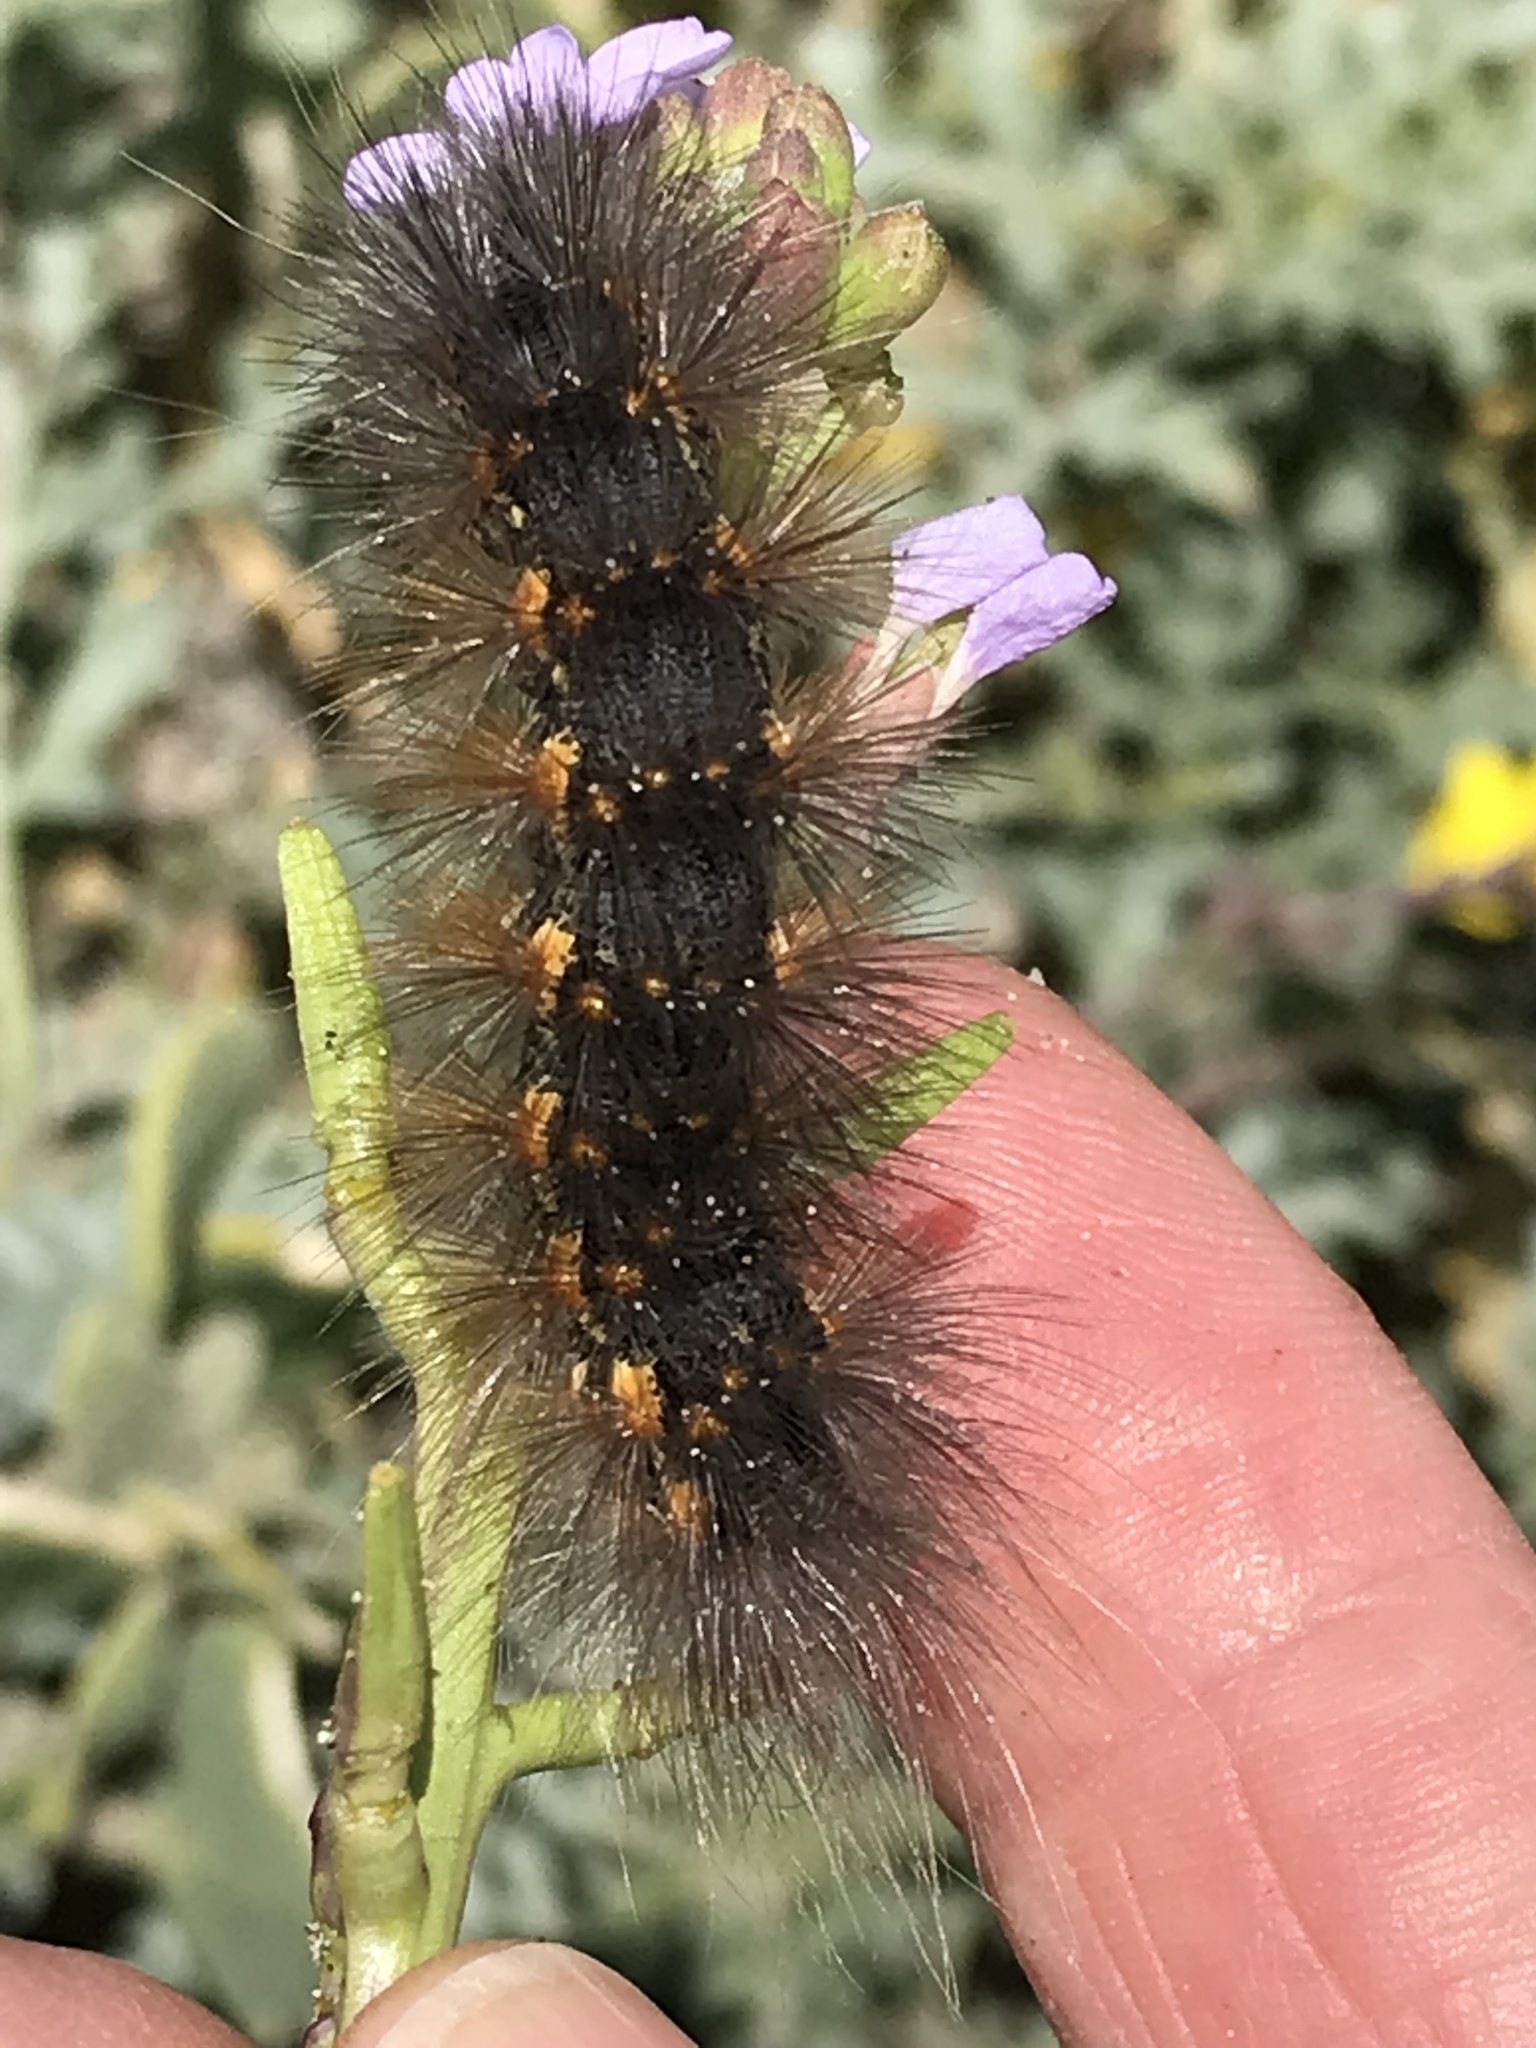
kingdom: Animalia
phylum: Arthropoda
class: Insecta
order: Lepidoptera
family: Erebidae
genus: Estigmene
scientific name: Estigmene acrea
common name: Salt marsh moth
